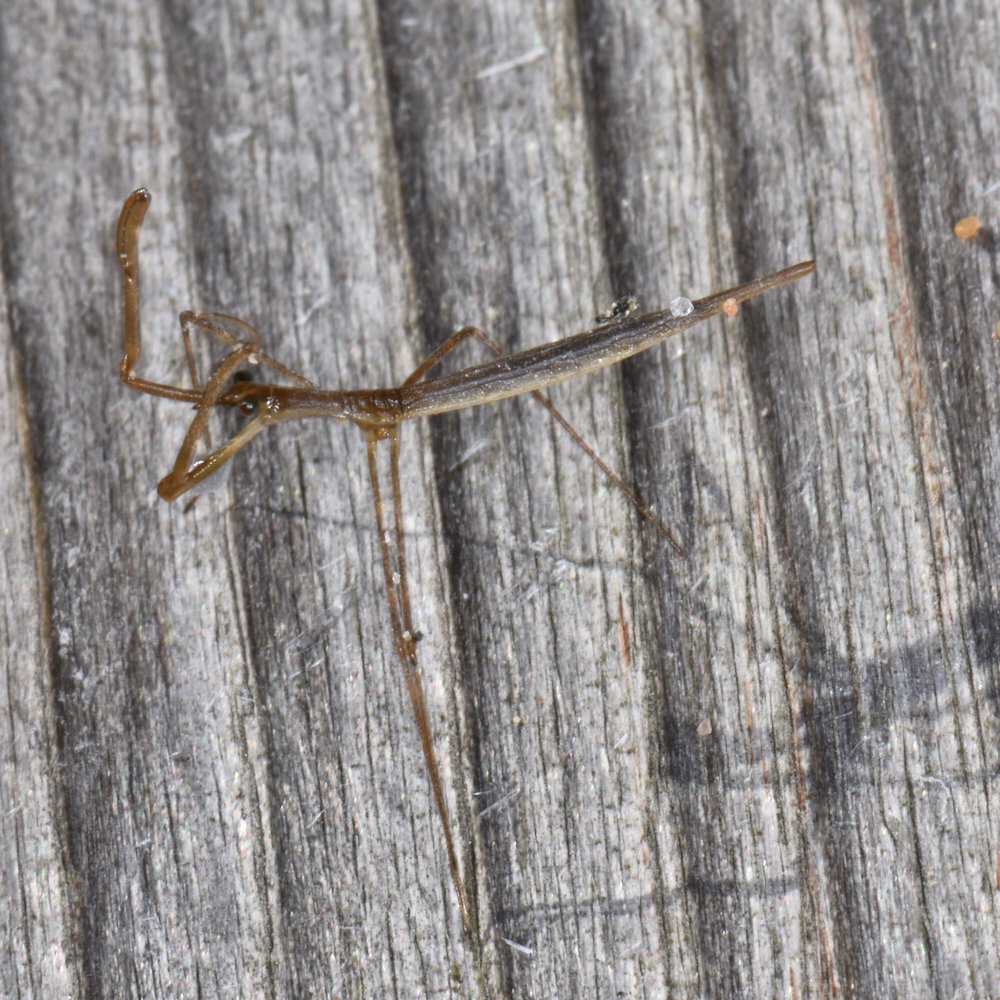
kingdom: Animalia
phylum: Arthropoda
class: Insecta
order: Hemiptera
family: Nepidae
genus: Ranatra
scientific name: Ranatra
